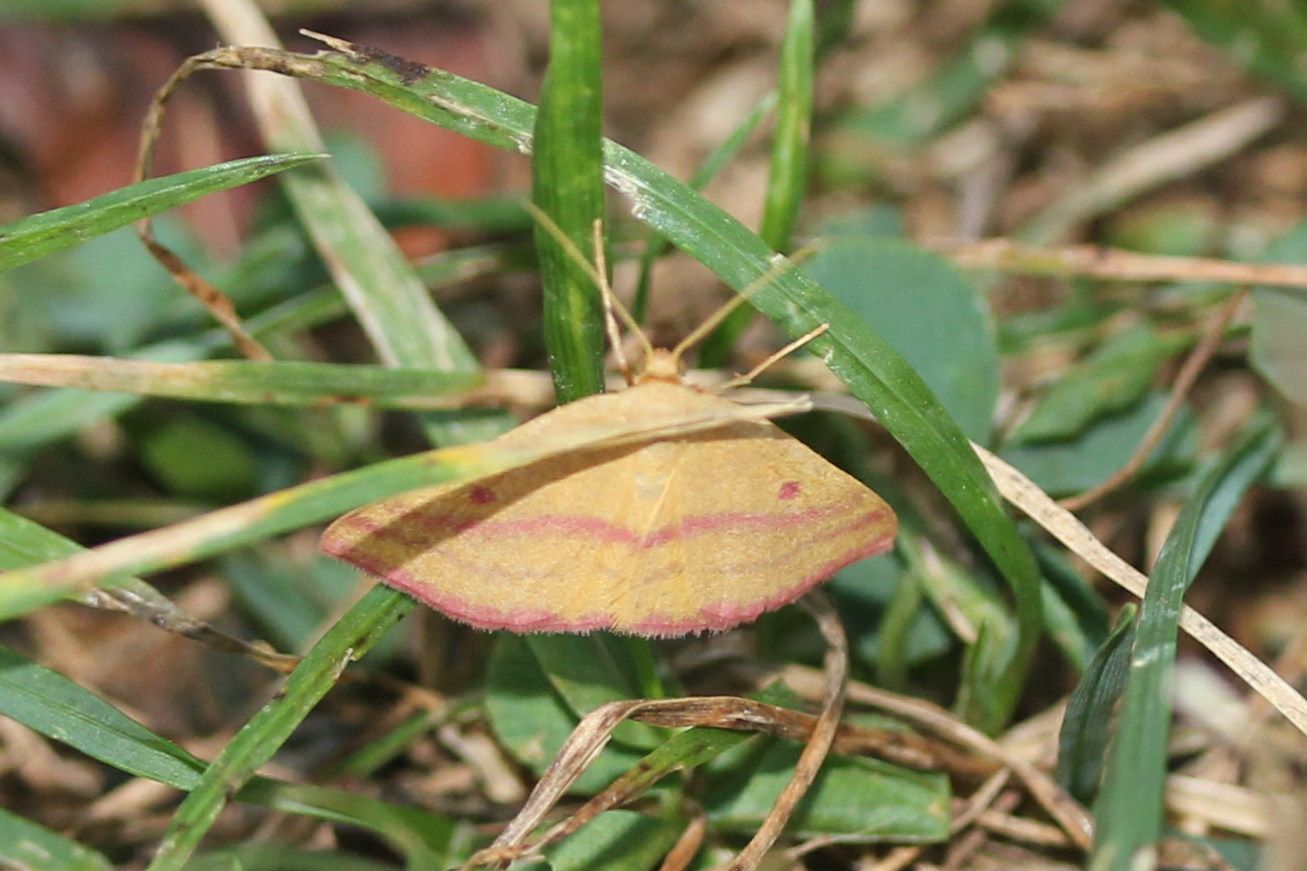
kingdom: Animalia
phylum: Arthropoda
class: Insecta
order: Lepidoptera
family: Geometridae
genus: Haematopis
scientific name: Haematopis grataria
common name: Chickweed geometer
